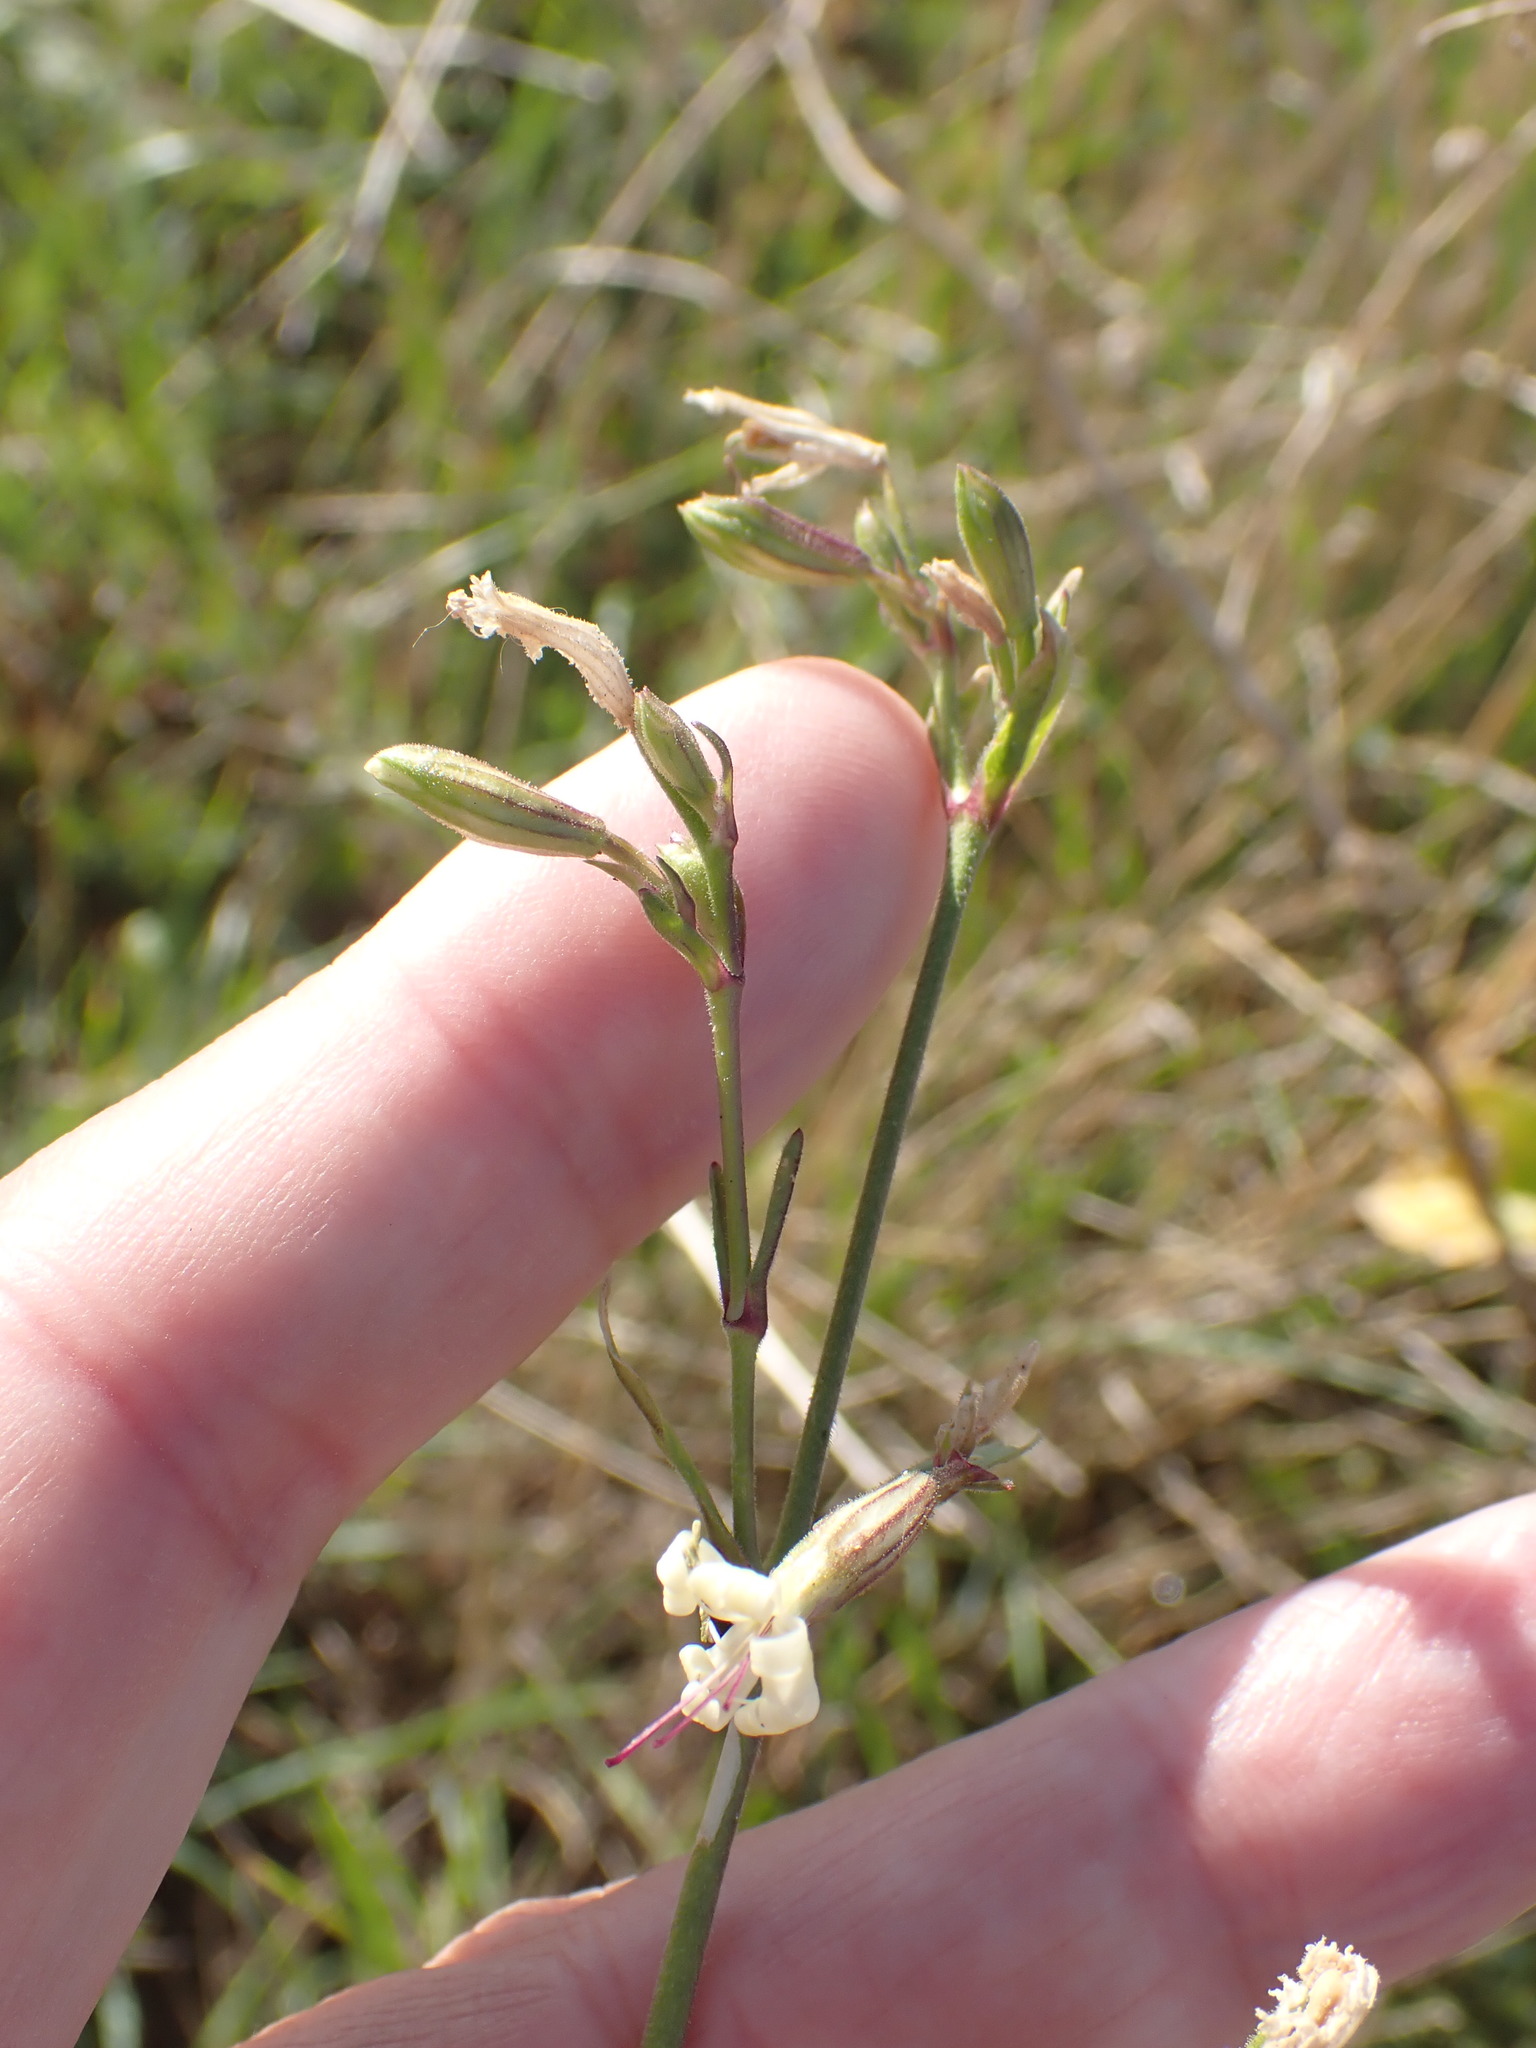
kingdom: Plantae
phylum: Tracheophyta
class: Magnoliopsida
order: Caryophyllales
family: Caryophyllaceae
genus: Silene
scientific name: Silene nutans
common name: Nottingham catchfly
